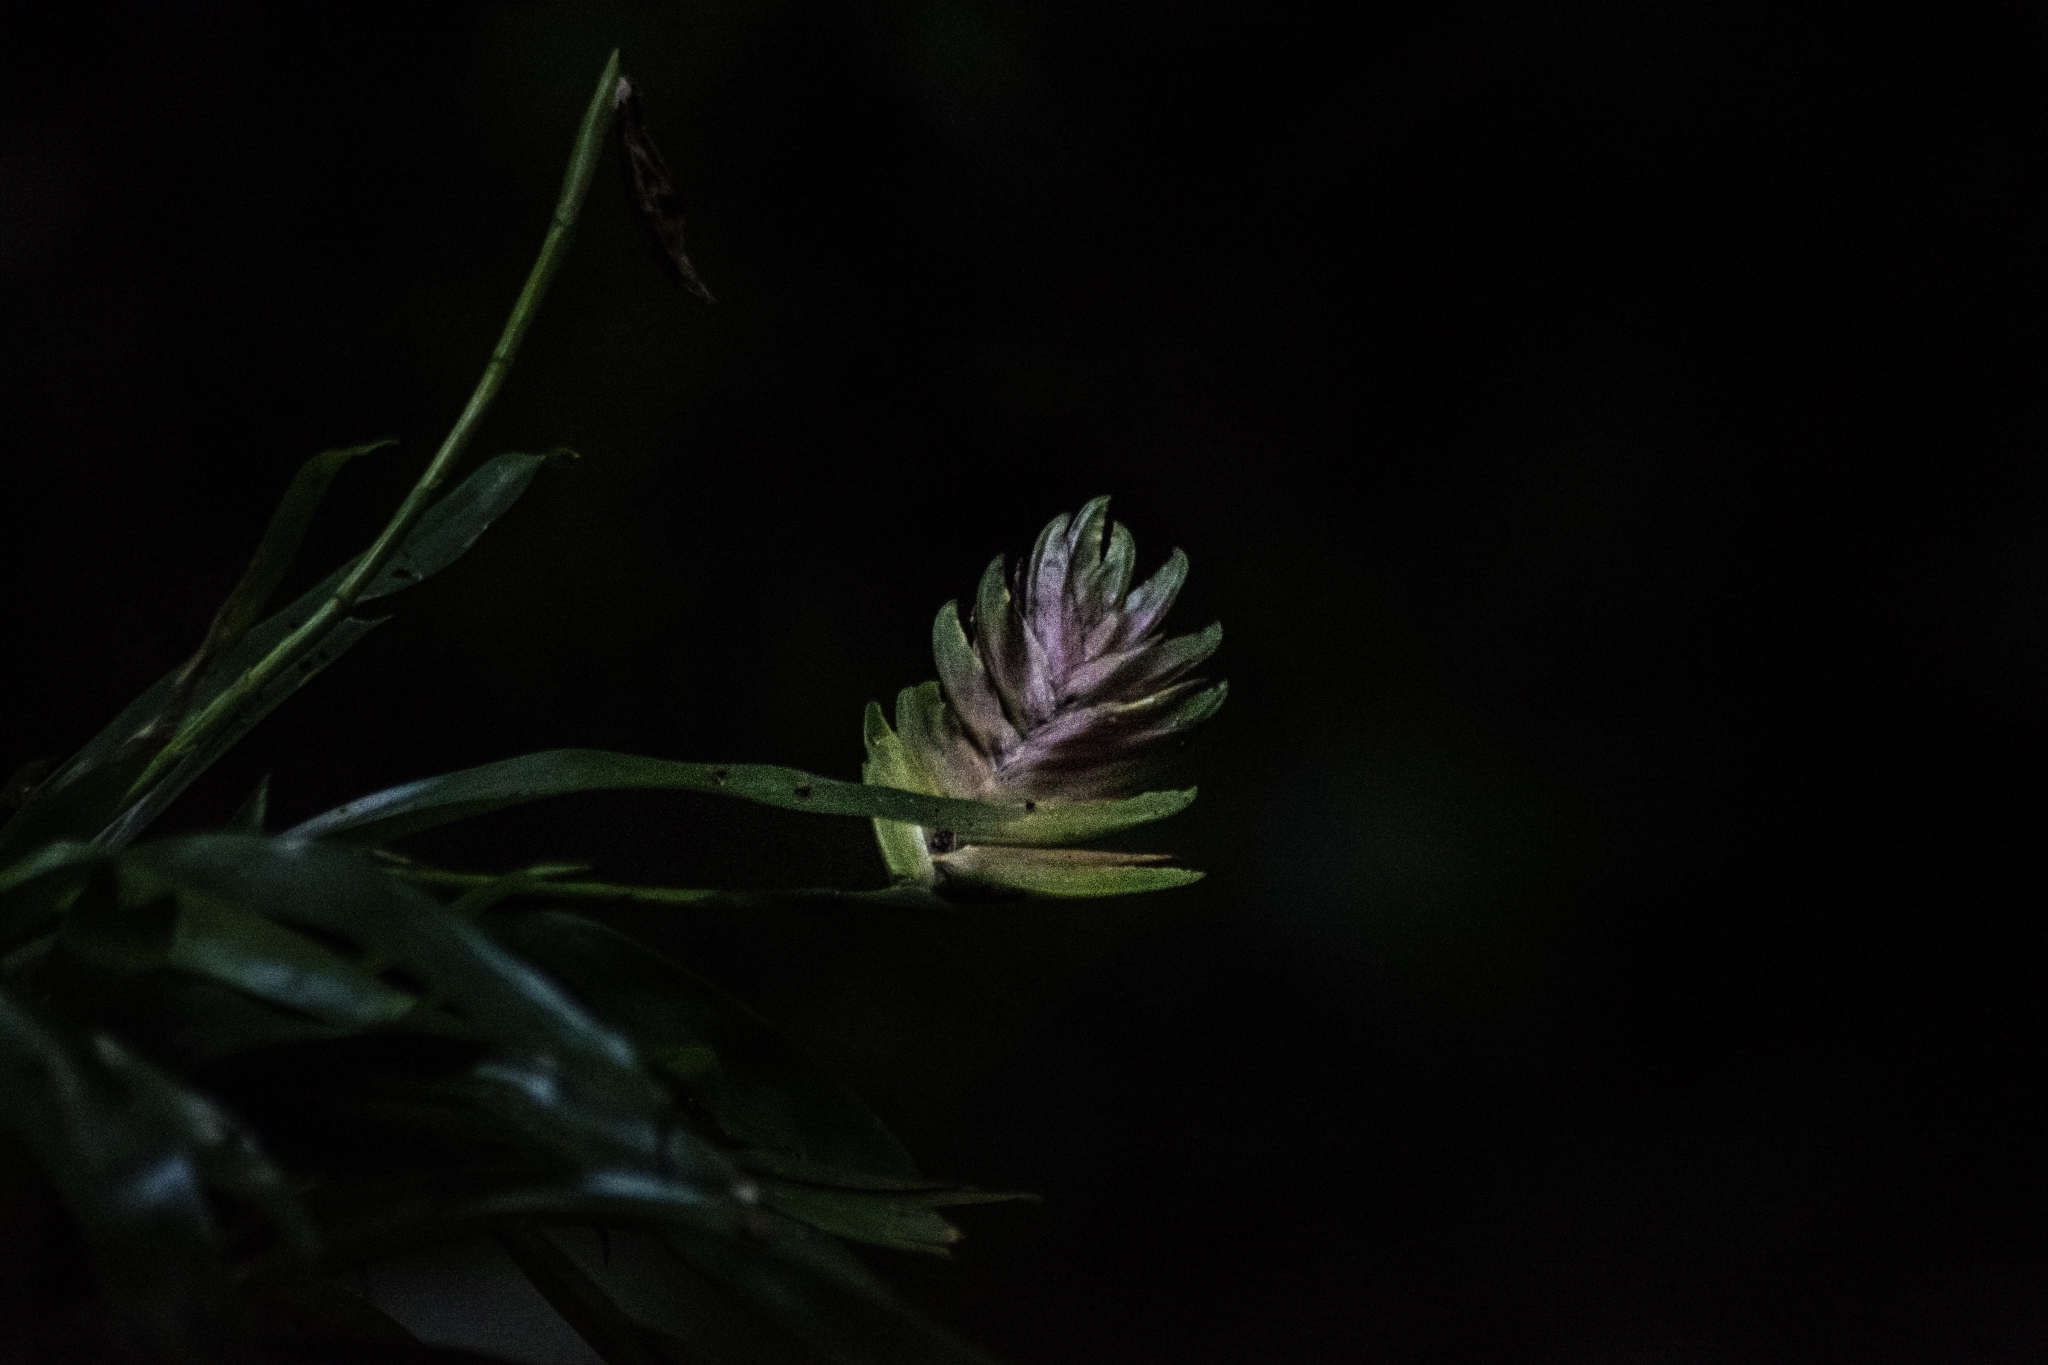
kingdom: Plantae
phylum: Tracheophyta
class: Liliopsida
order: Poales
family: Bromeliaceae
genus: Vriesea
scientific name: Vriesea carinata
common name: Lobster-claws
